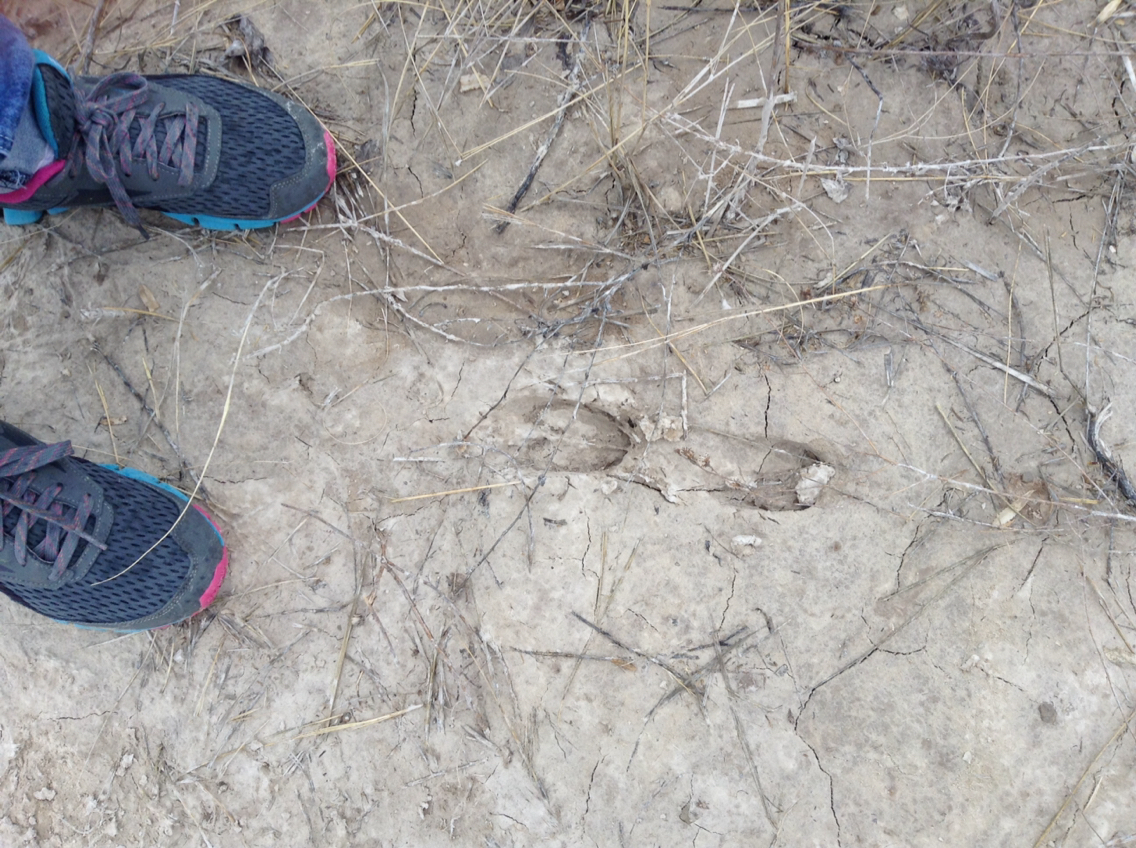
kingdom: Animalia
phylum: Chordata
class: Mammalia
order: Artiodactyla
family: Antilocapridae
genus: Antilocapra
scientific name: Antilocapra americana
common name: Pronghorn
